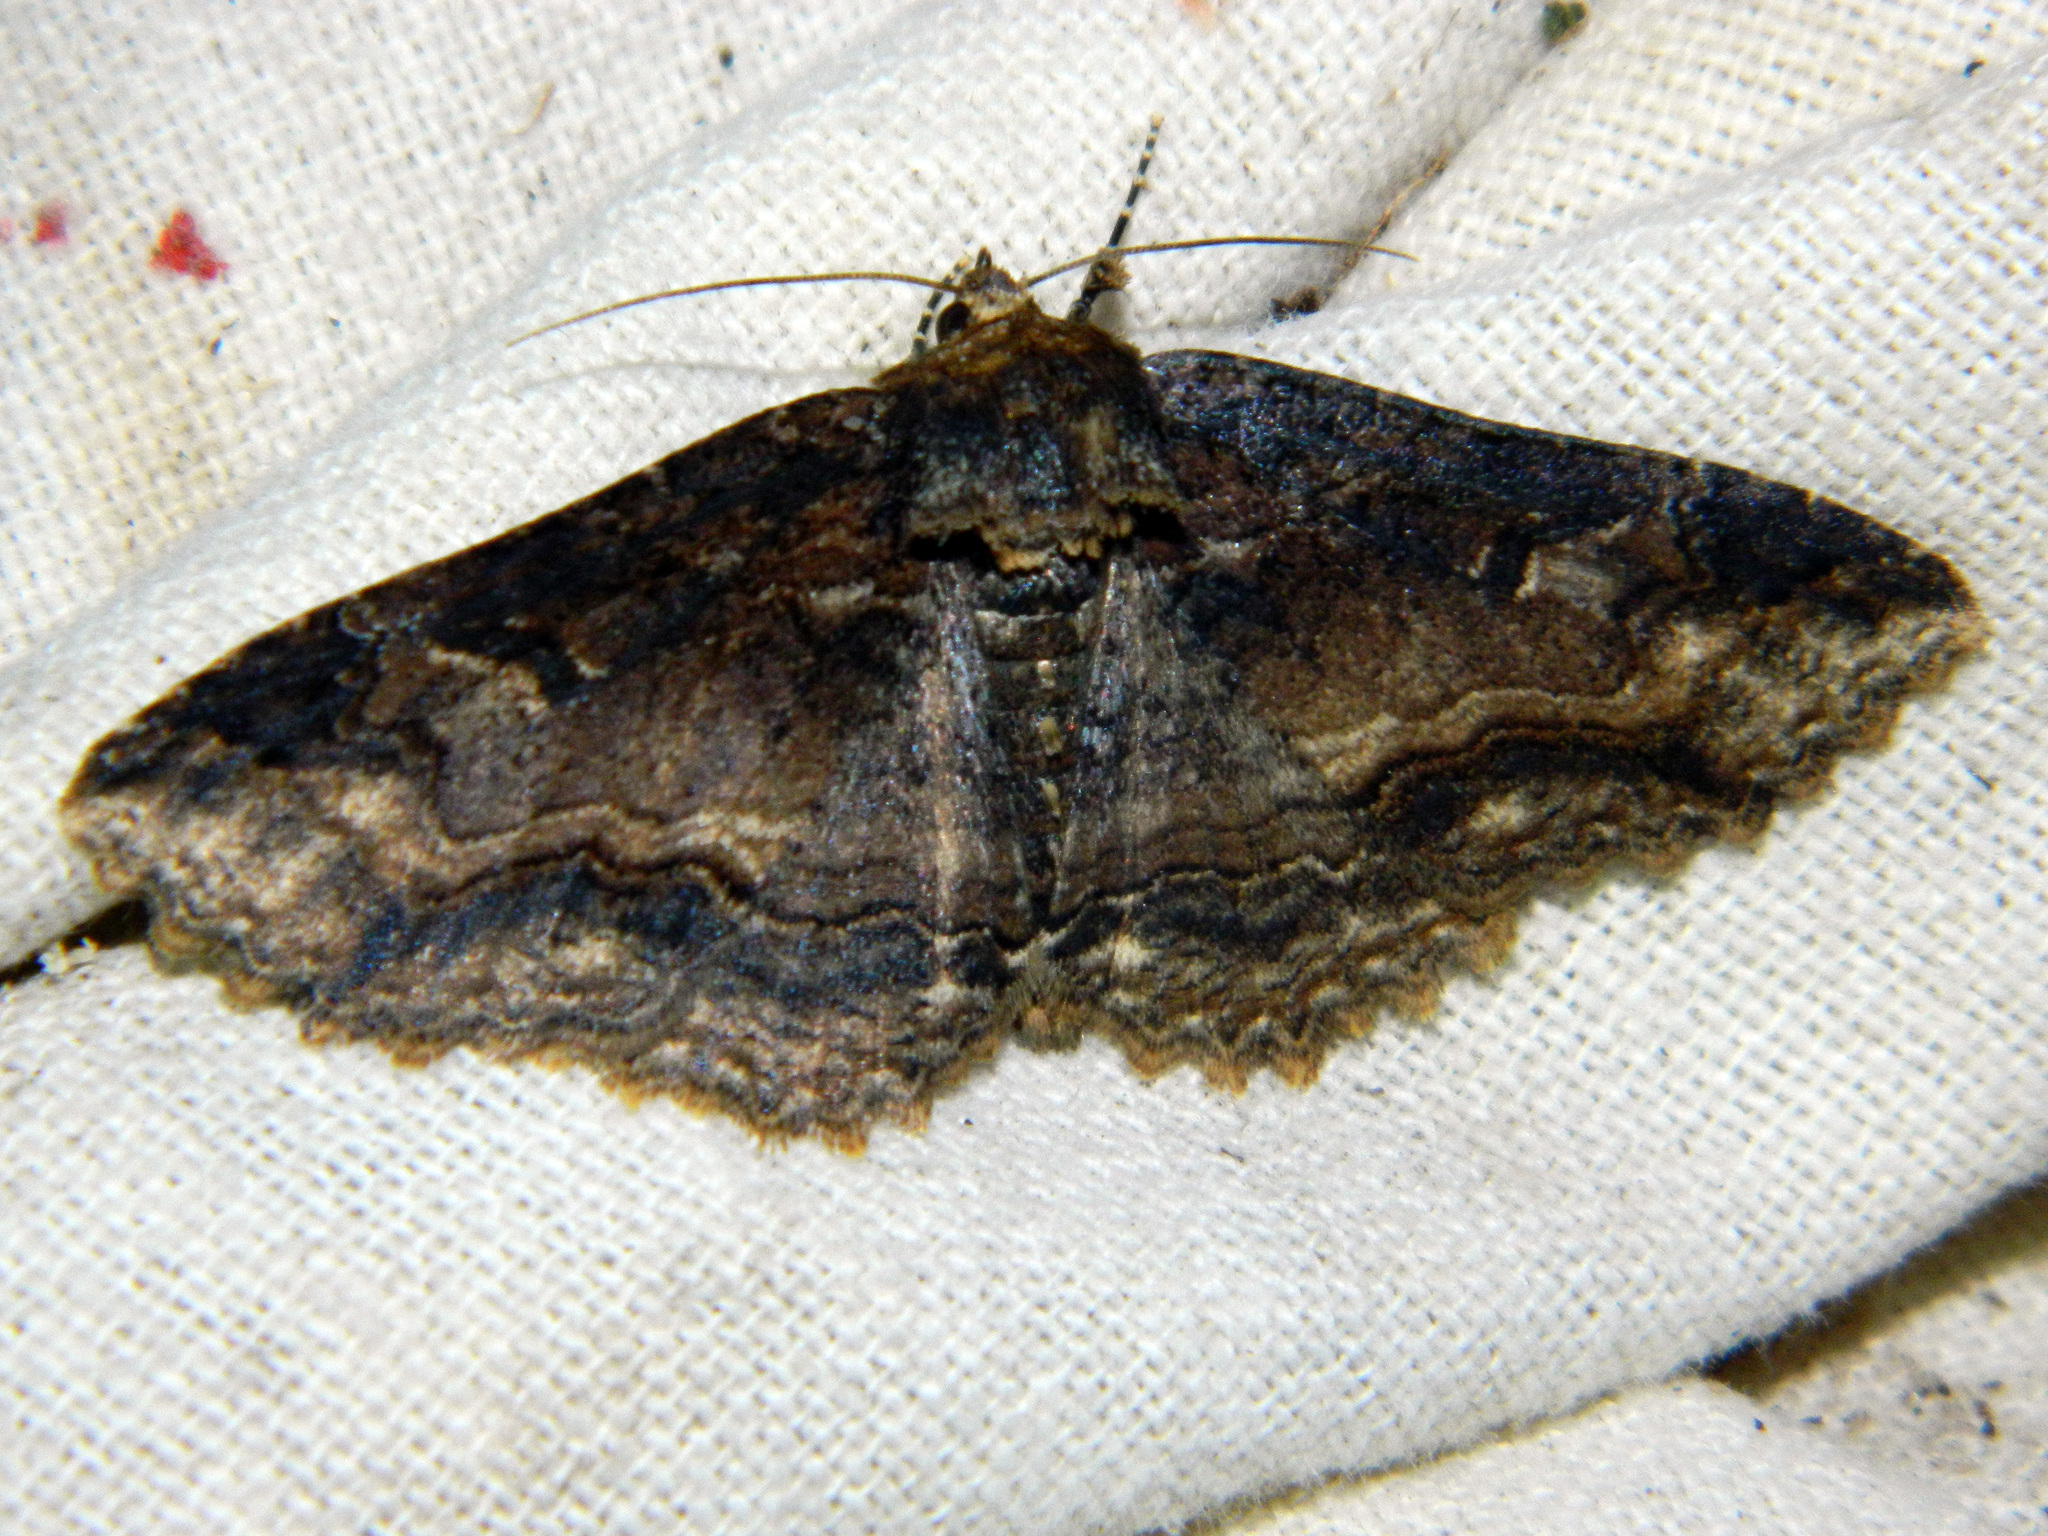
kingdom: Animalia
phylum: Arthropoda
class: Insecta
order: Lepidoptera
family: Erebidae
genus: Zale
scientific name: Zale minerea
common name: Colorful zale moth
